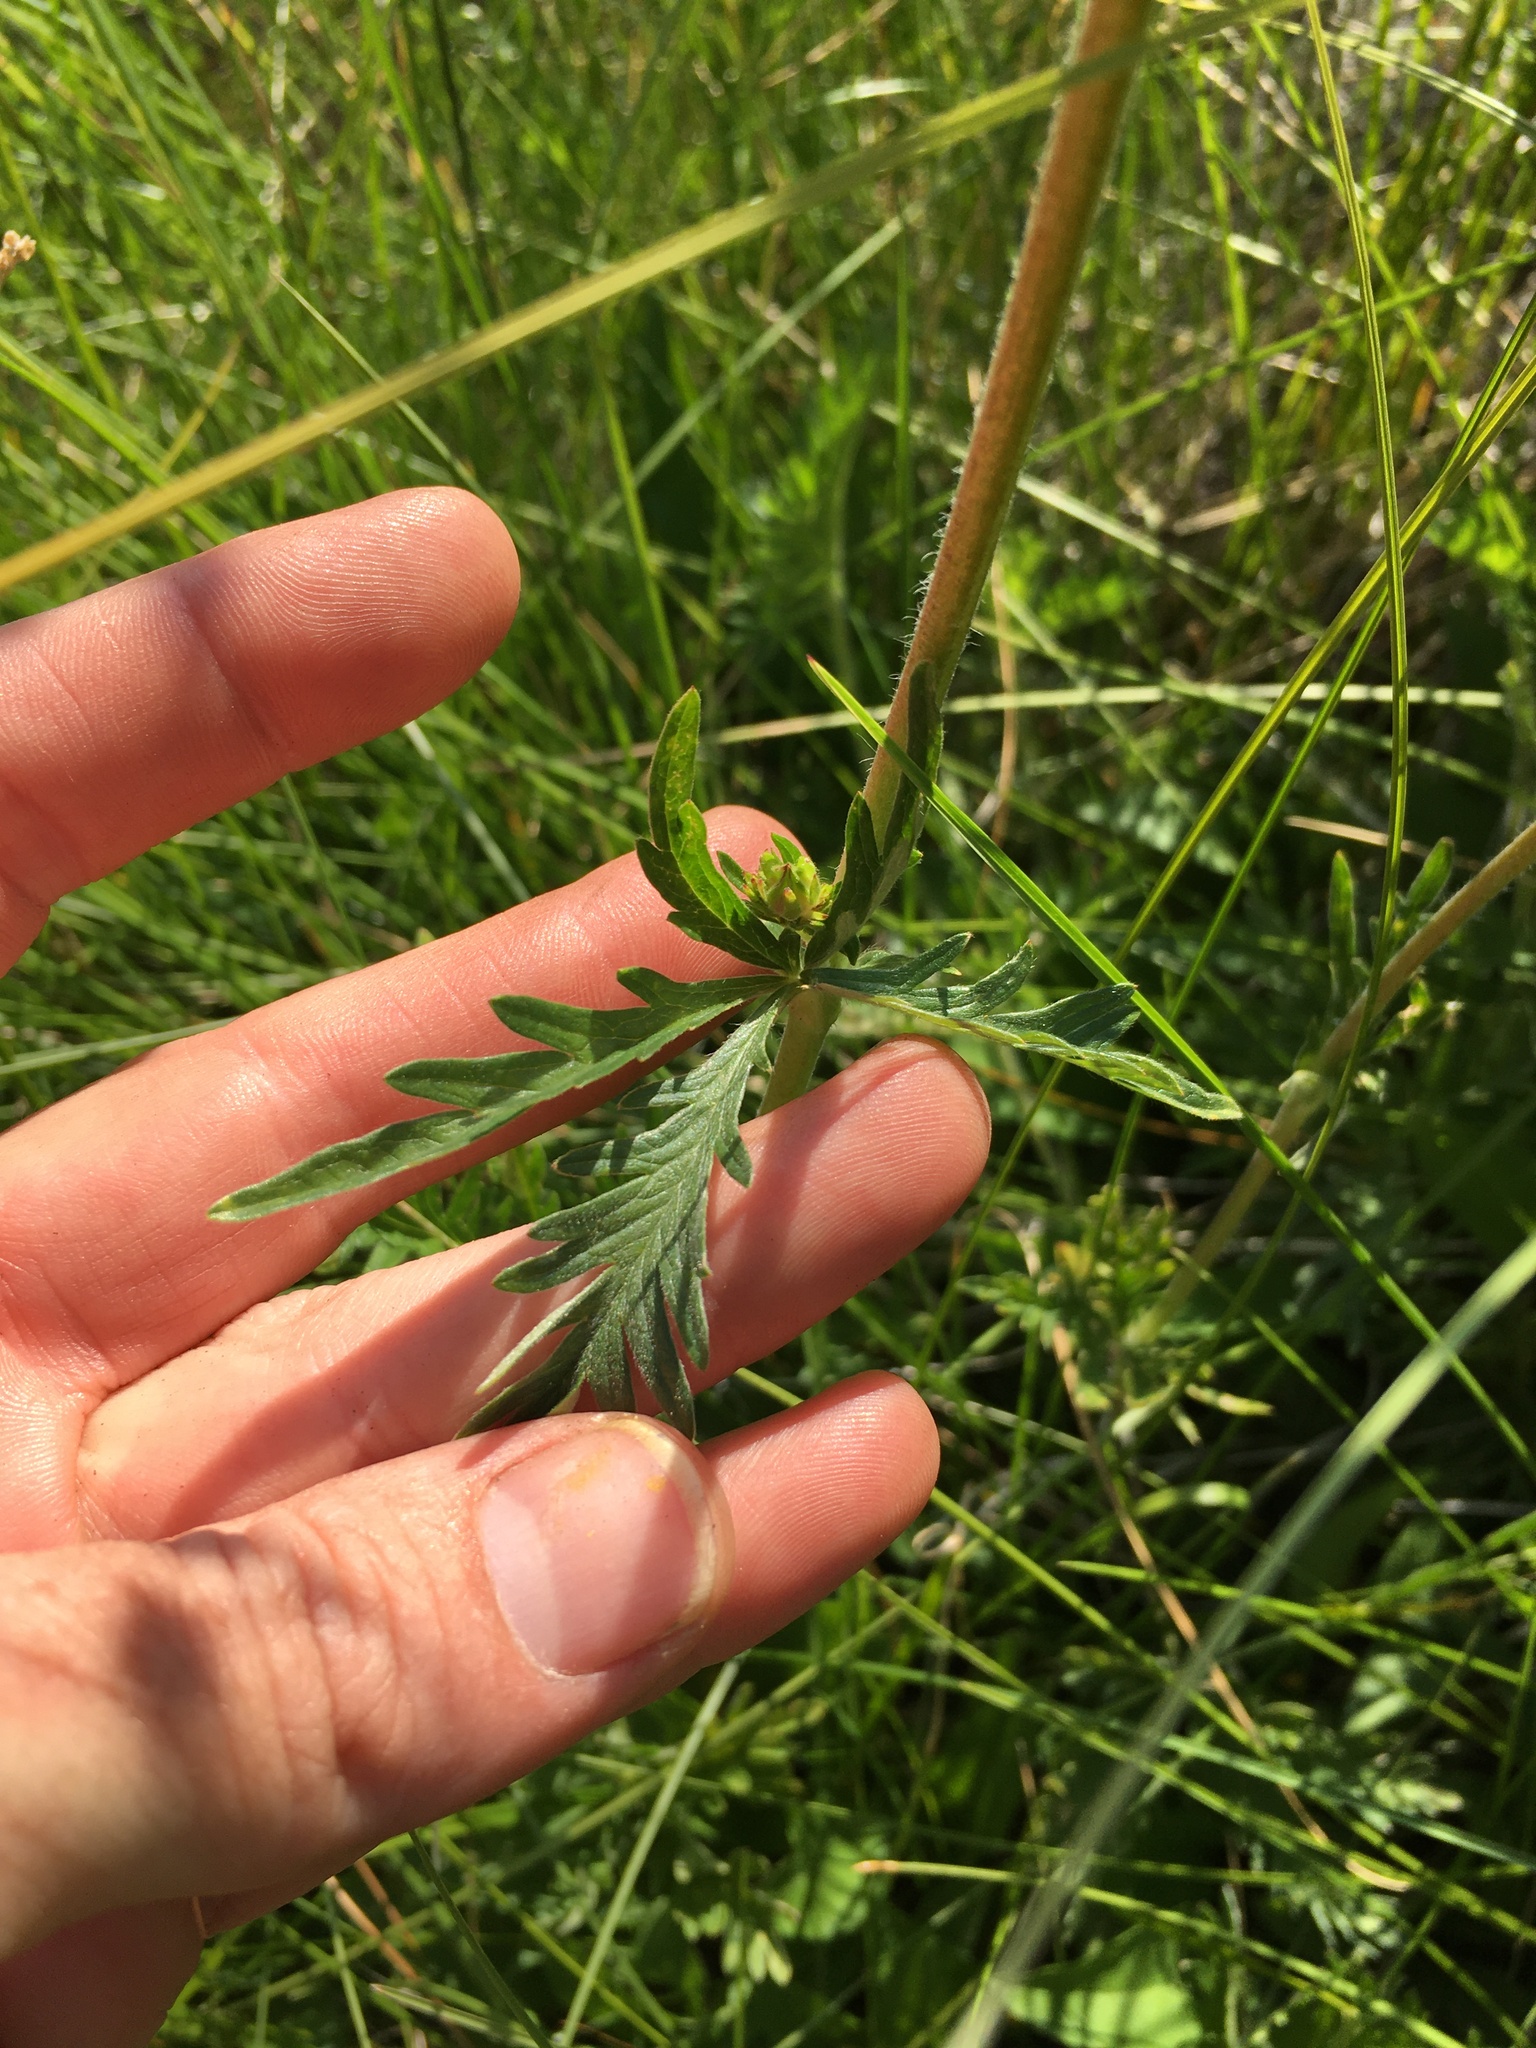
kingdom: Plantae
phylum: Tracheophyta
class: Magnoliopsida
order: Rosales
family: Rosaceae
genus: Potentilla
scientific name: Potentilla gracilis
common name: Graceful cinquefoil
